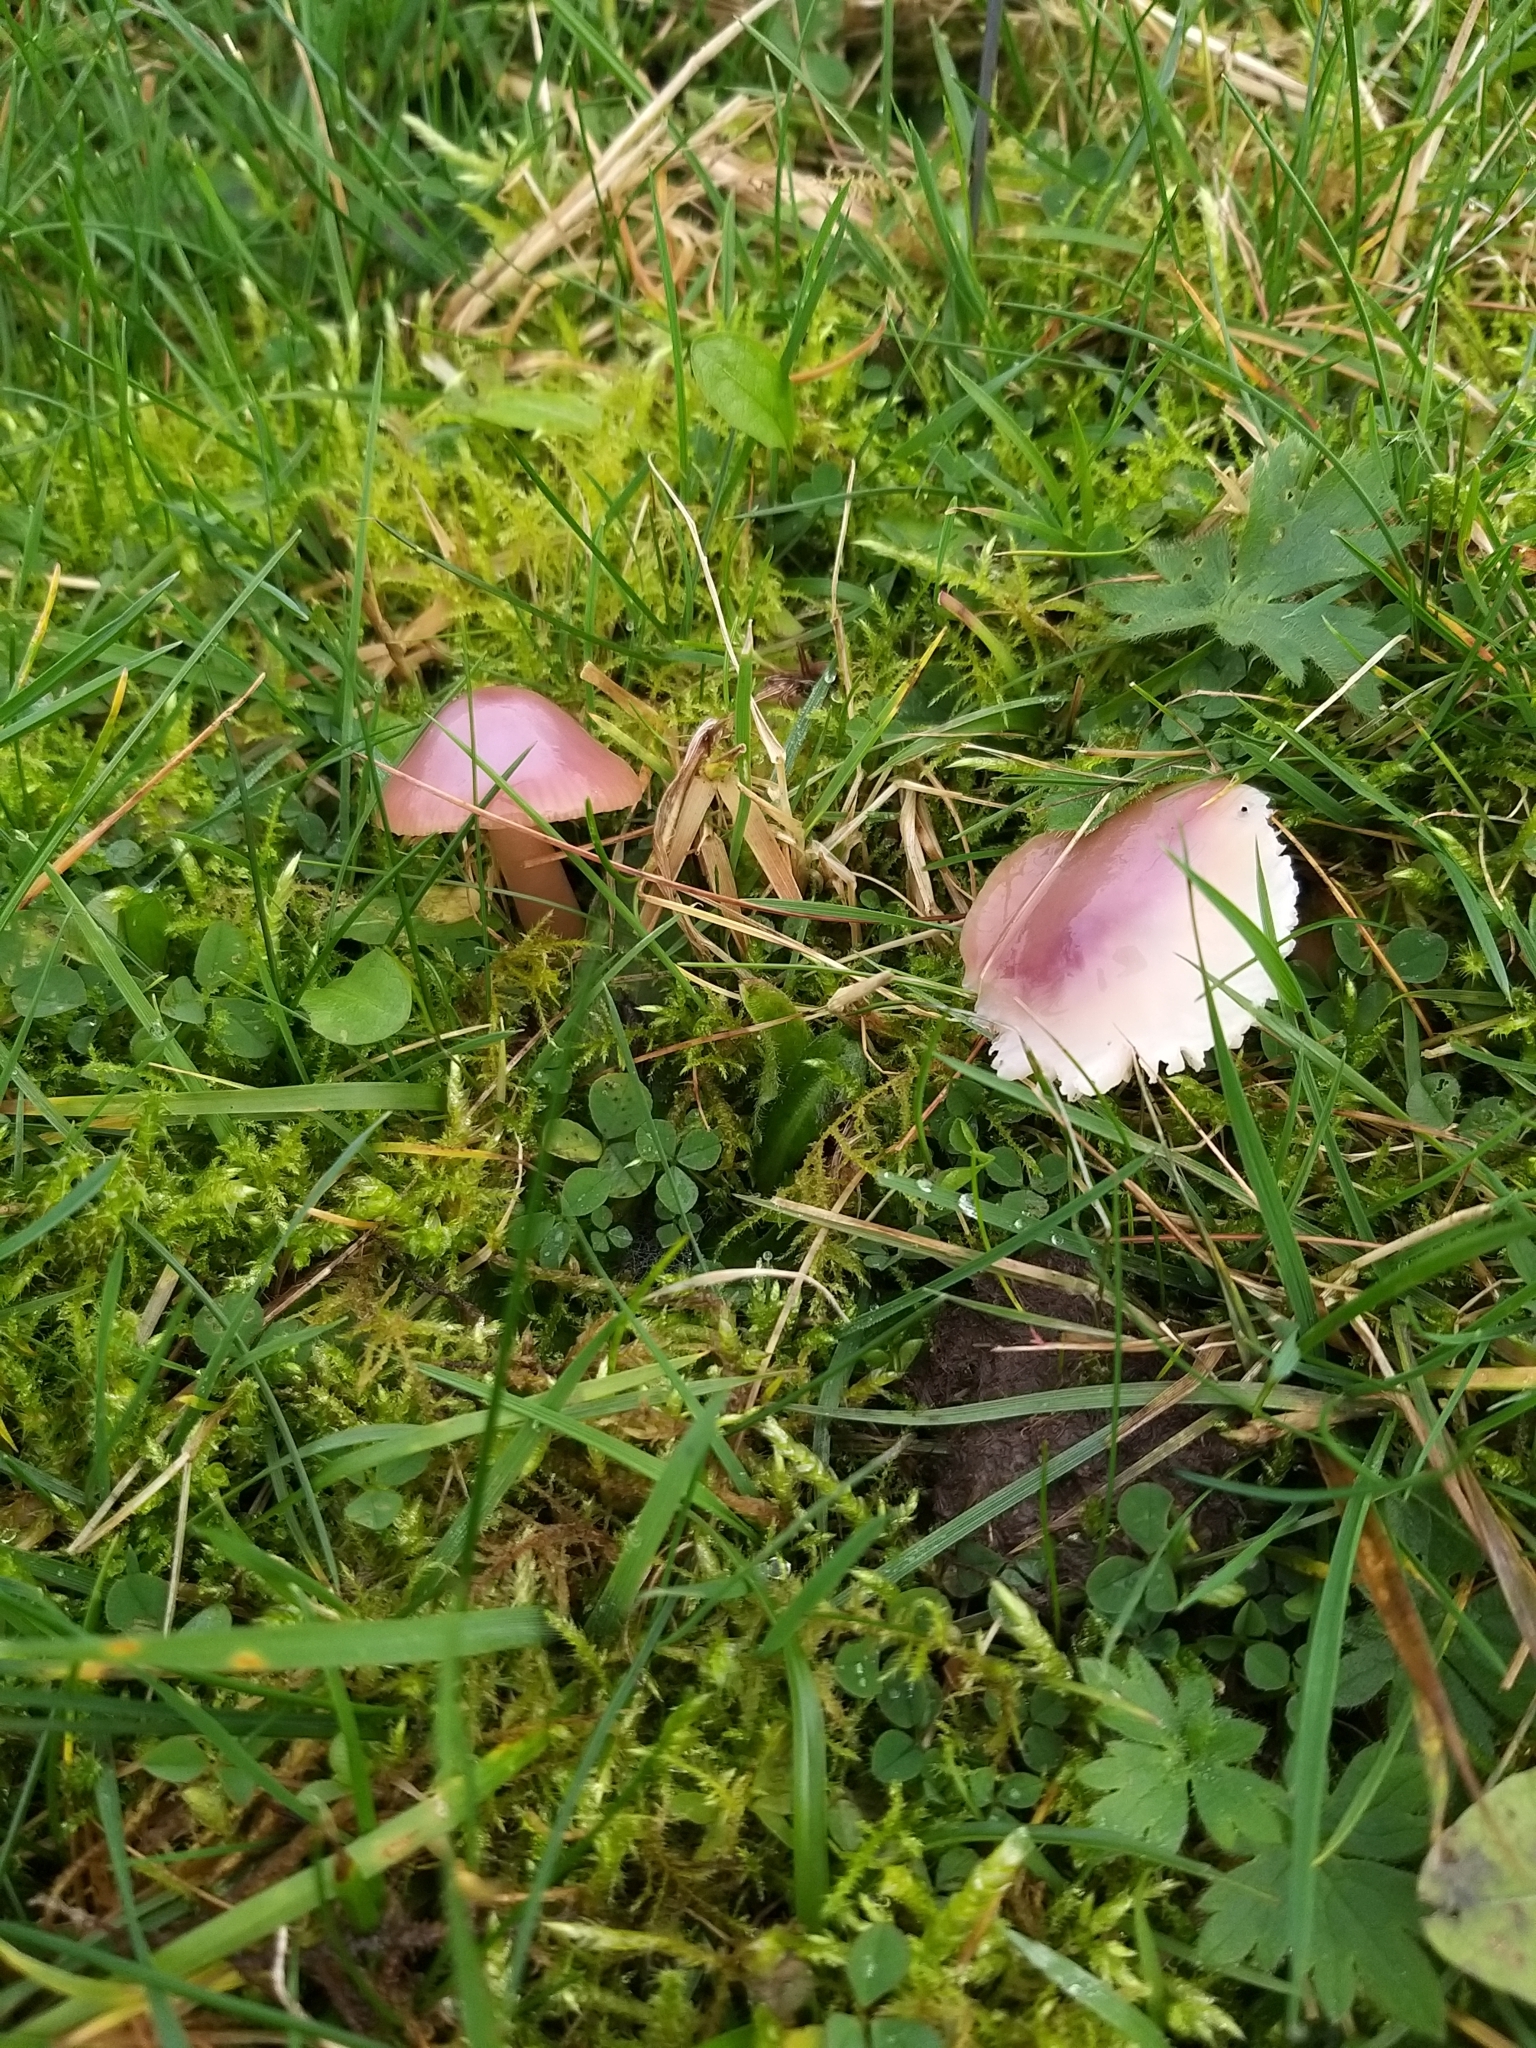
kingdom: Fungi
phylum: Basidiomycota
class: Agaricomycetes
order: Agaricales
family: Hygrophoraceae
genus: Gliophorus
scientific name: Gliophorus reginae
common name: Jubilee waxcap
